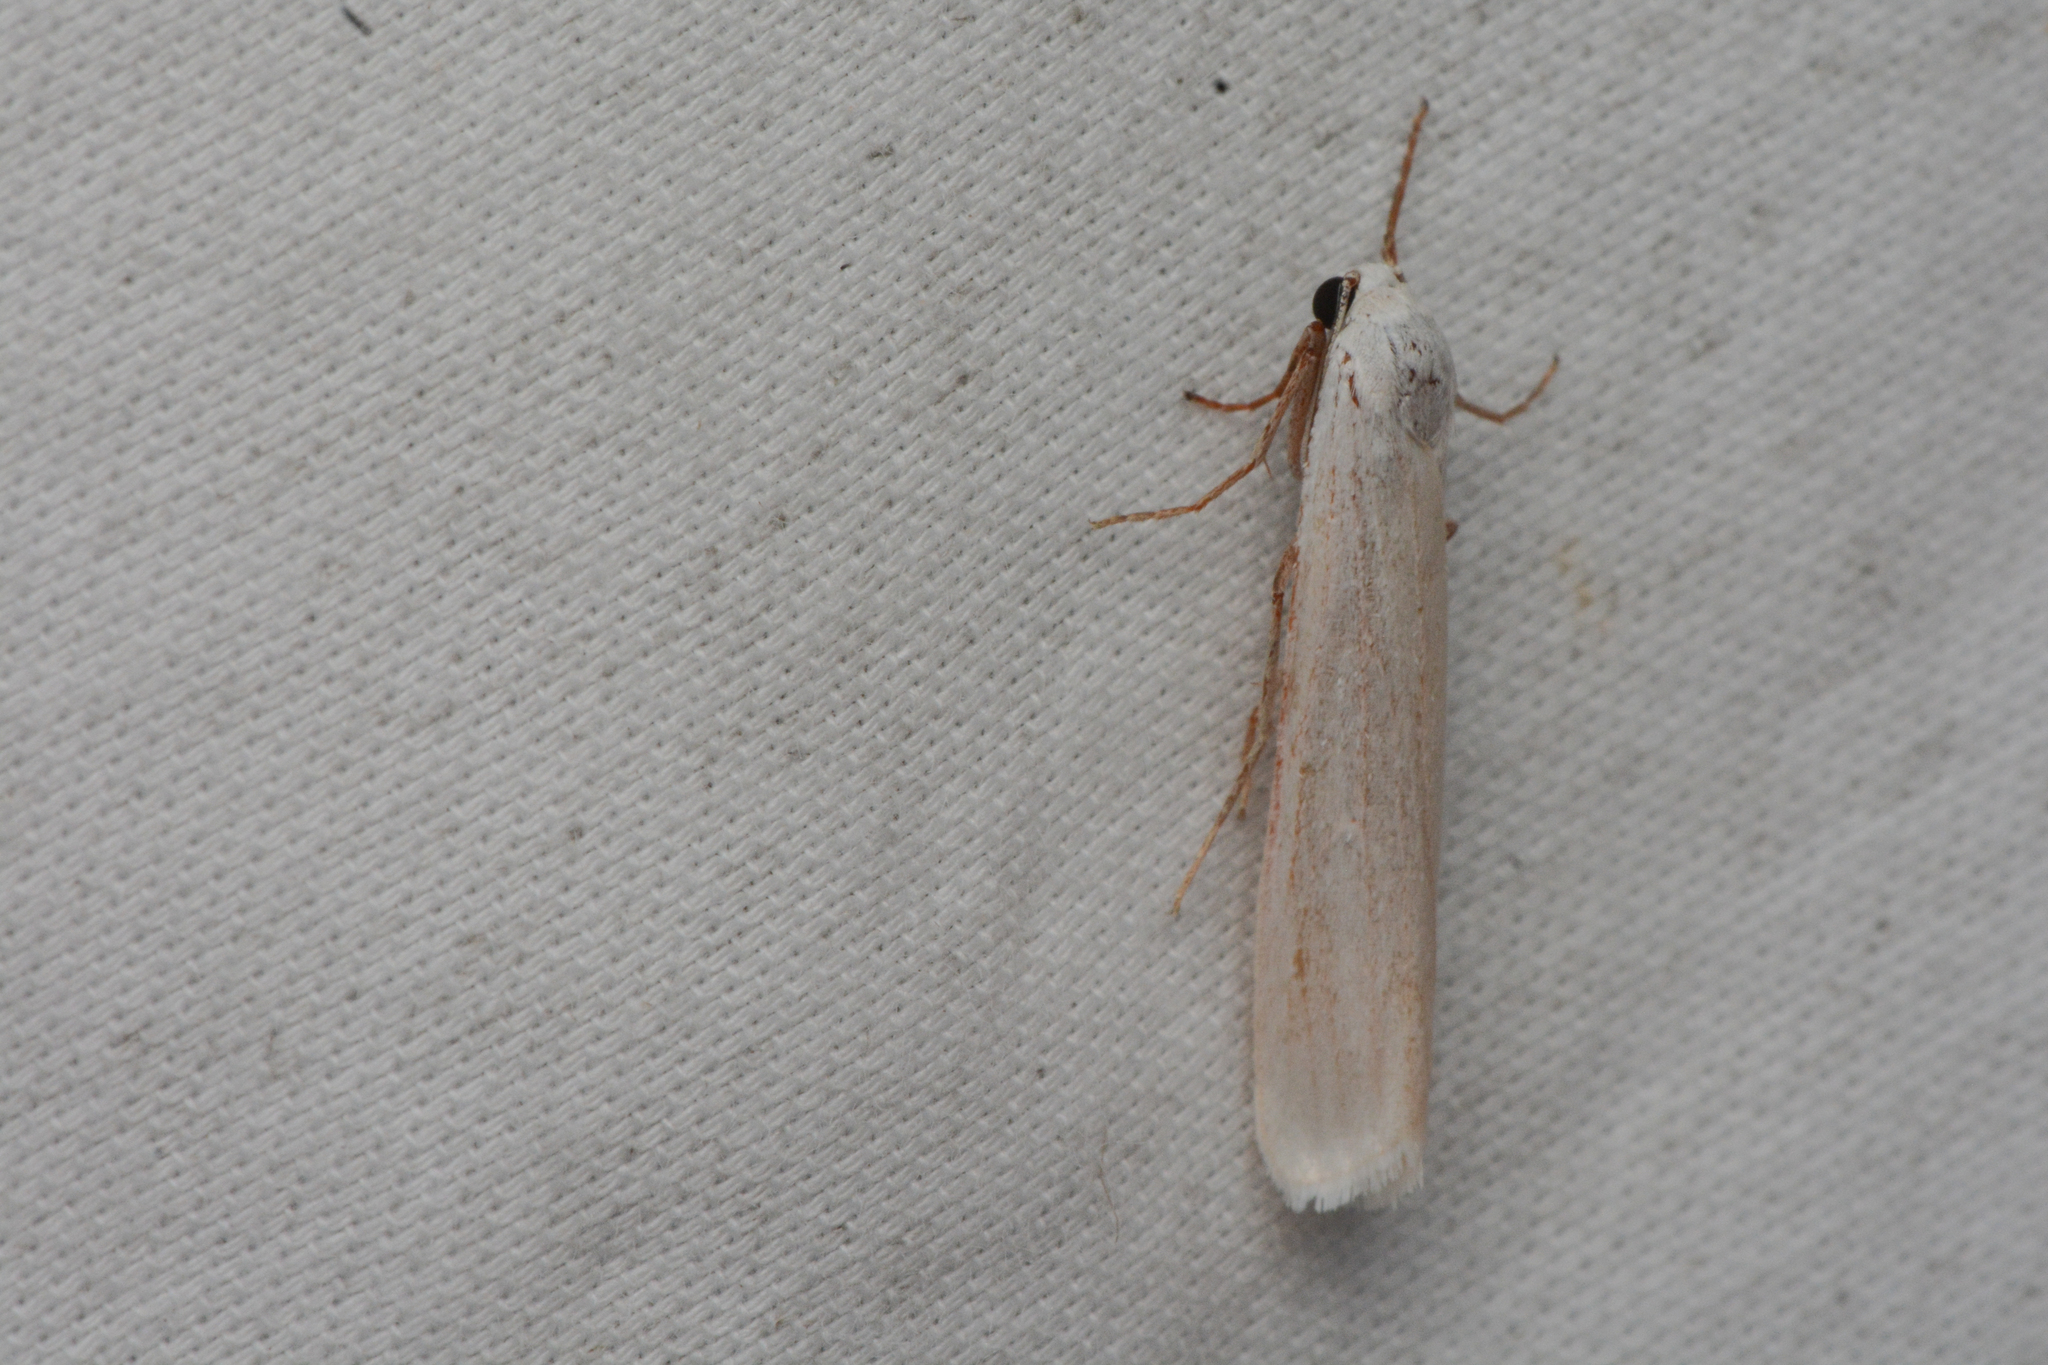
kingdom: Animalia
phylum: Arthropoda
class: Insecta
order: Lepidoptera
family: Erebidae
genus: Crambidia
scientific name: Crambidia casta
